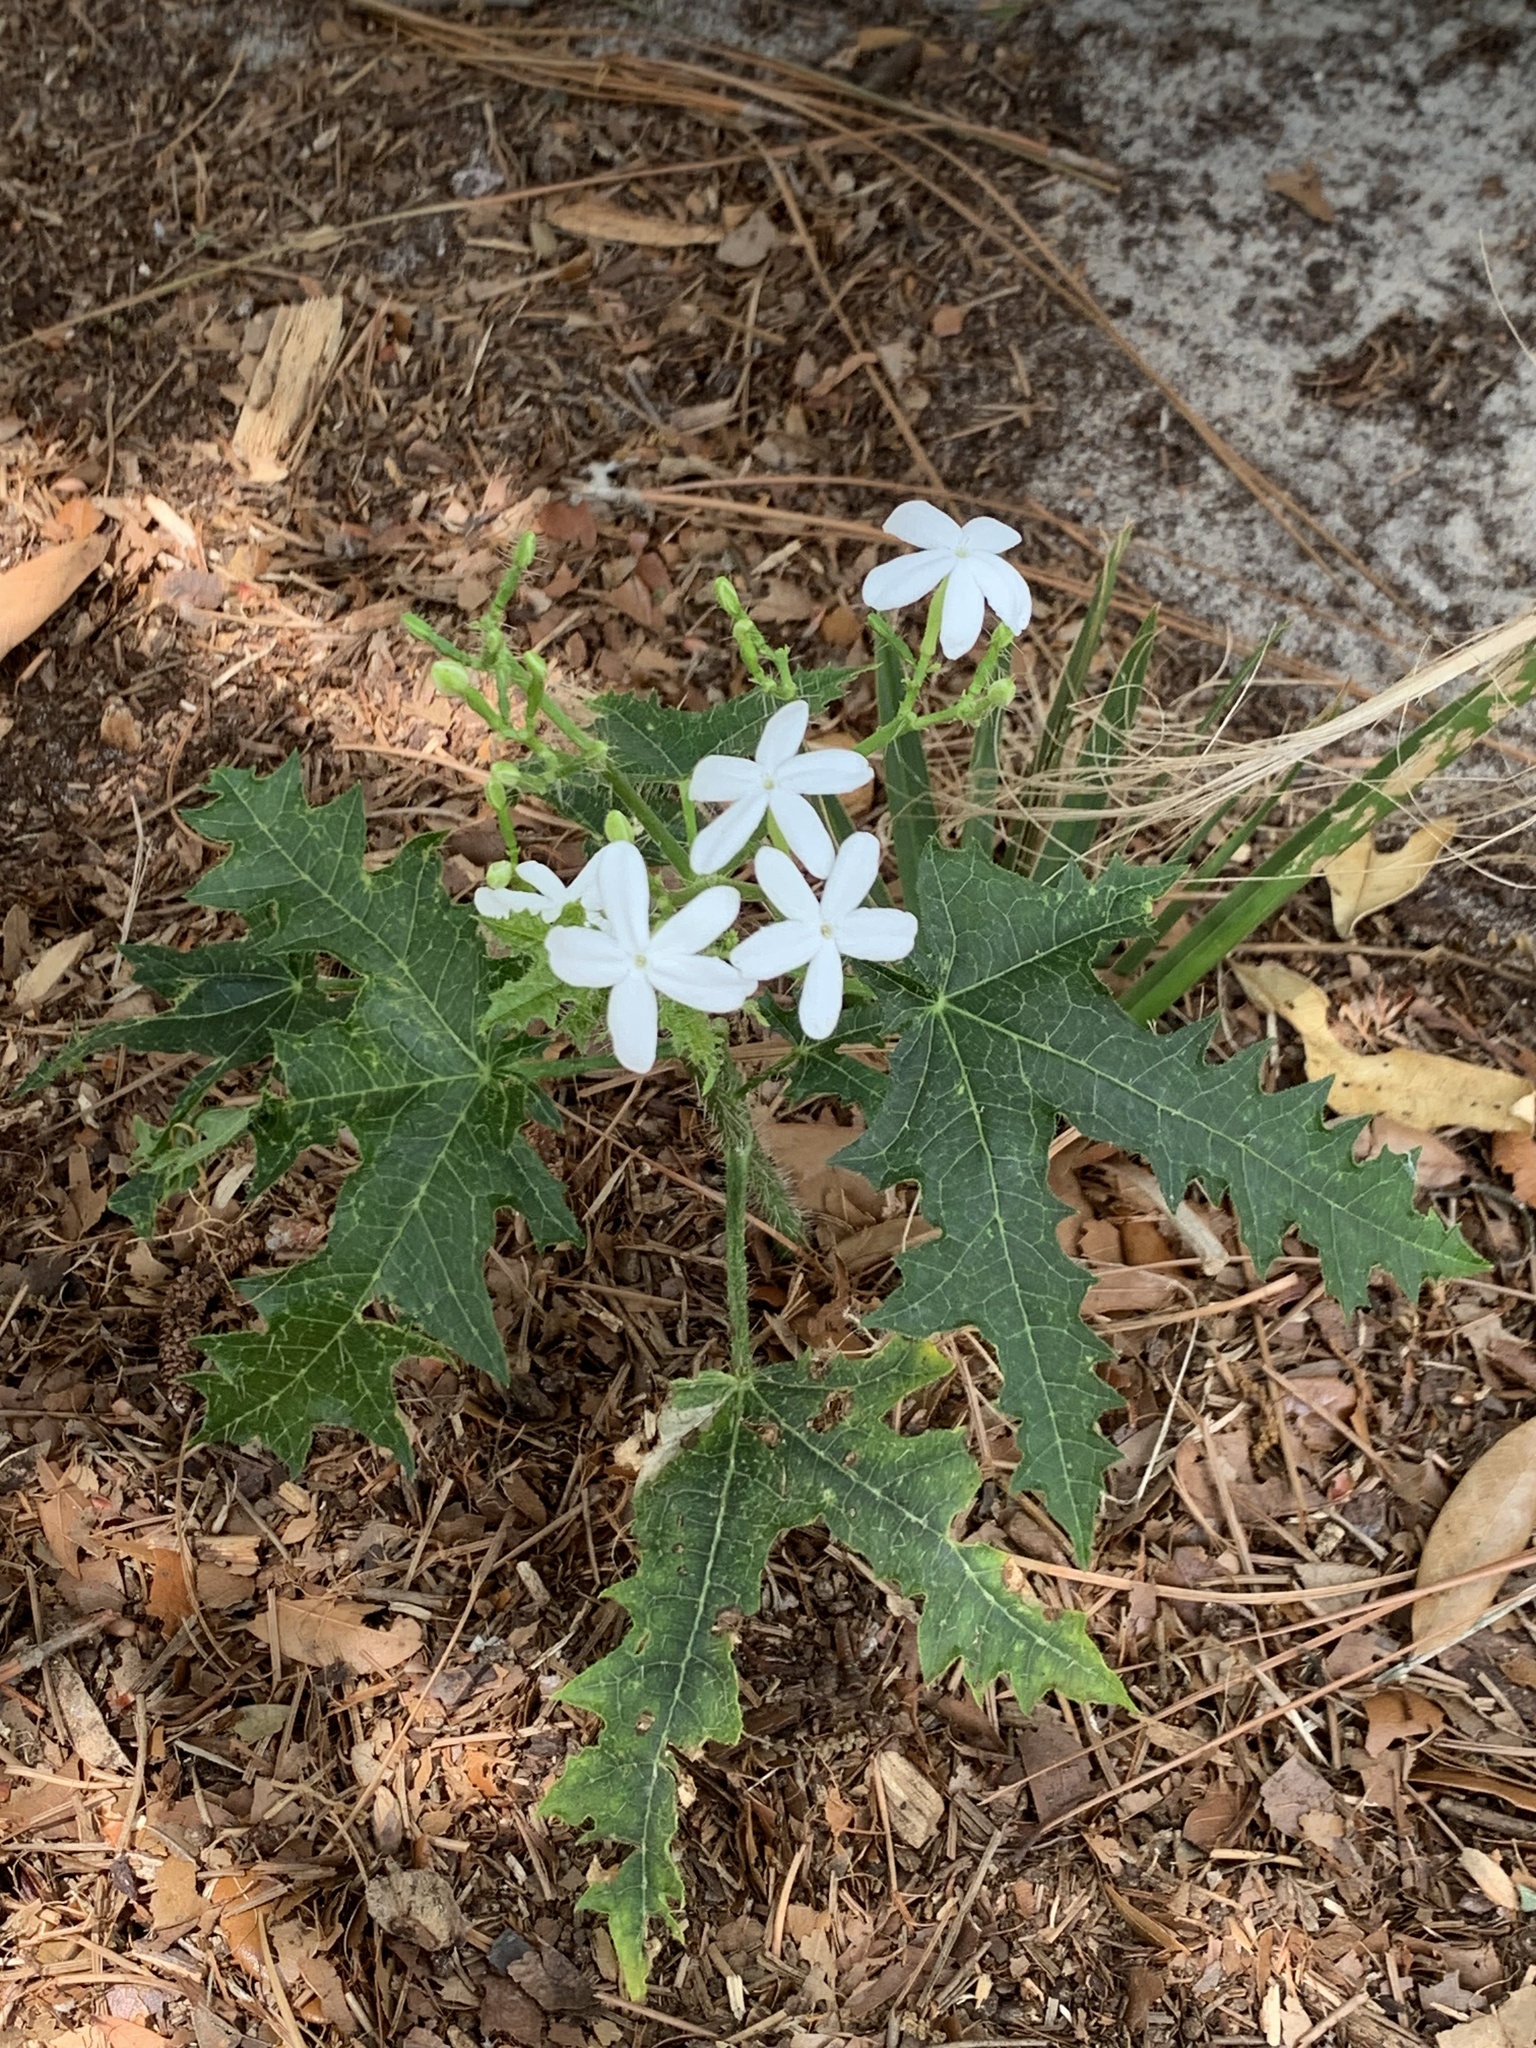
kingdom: Plantae
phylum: Tracheophyta
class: Magnoliopsida
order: Malpighiales
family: Euphorbiaceae
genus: Cnidoscolus
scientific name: Cnidoscolus stimulosus
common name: Bull-nettle
